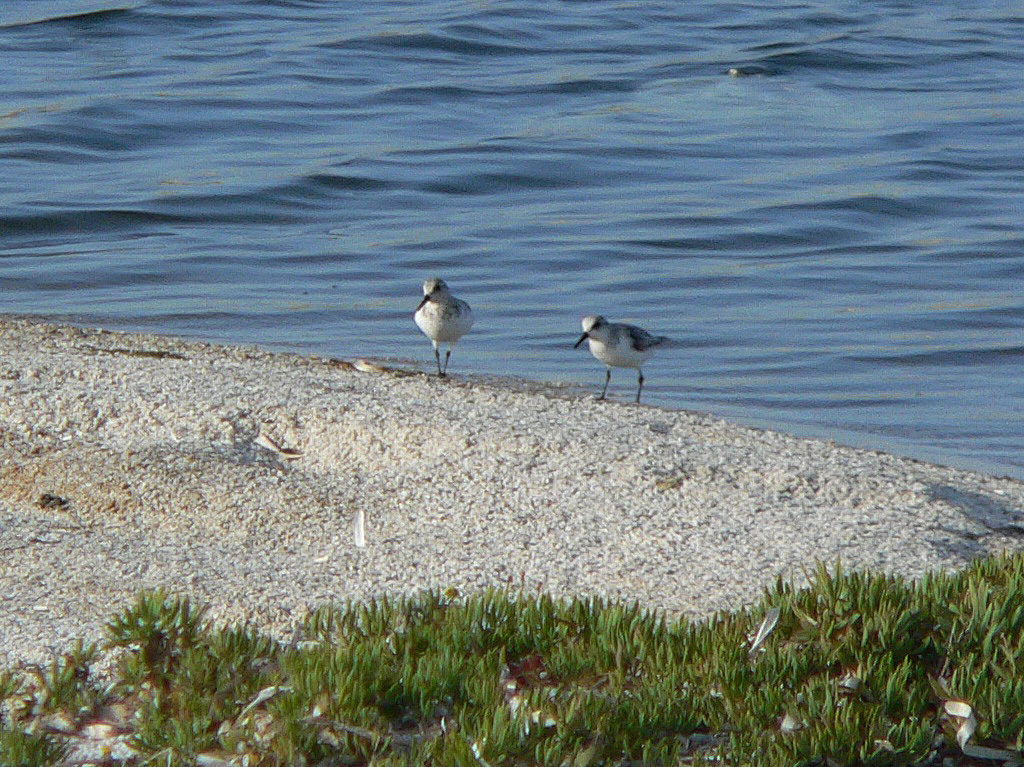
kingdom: Animalia
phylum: Chordata
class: Aves
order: Charadriiformes
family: Scolopacidae
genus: Calidris
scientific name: Calidris alba
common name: Sanderling
